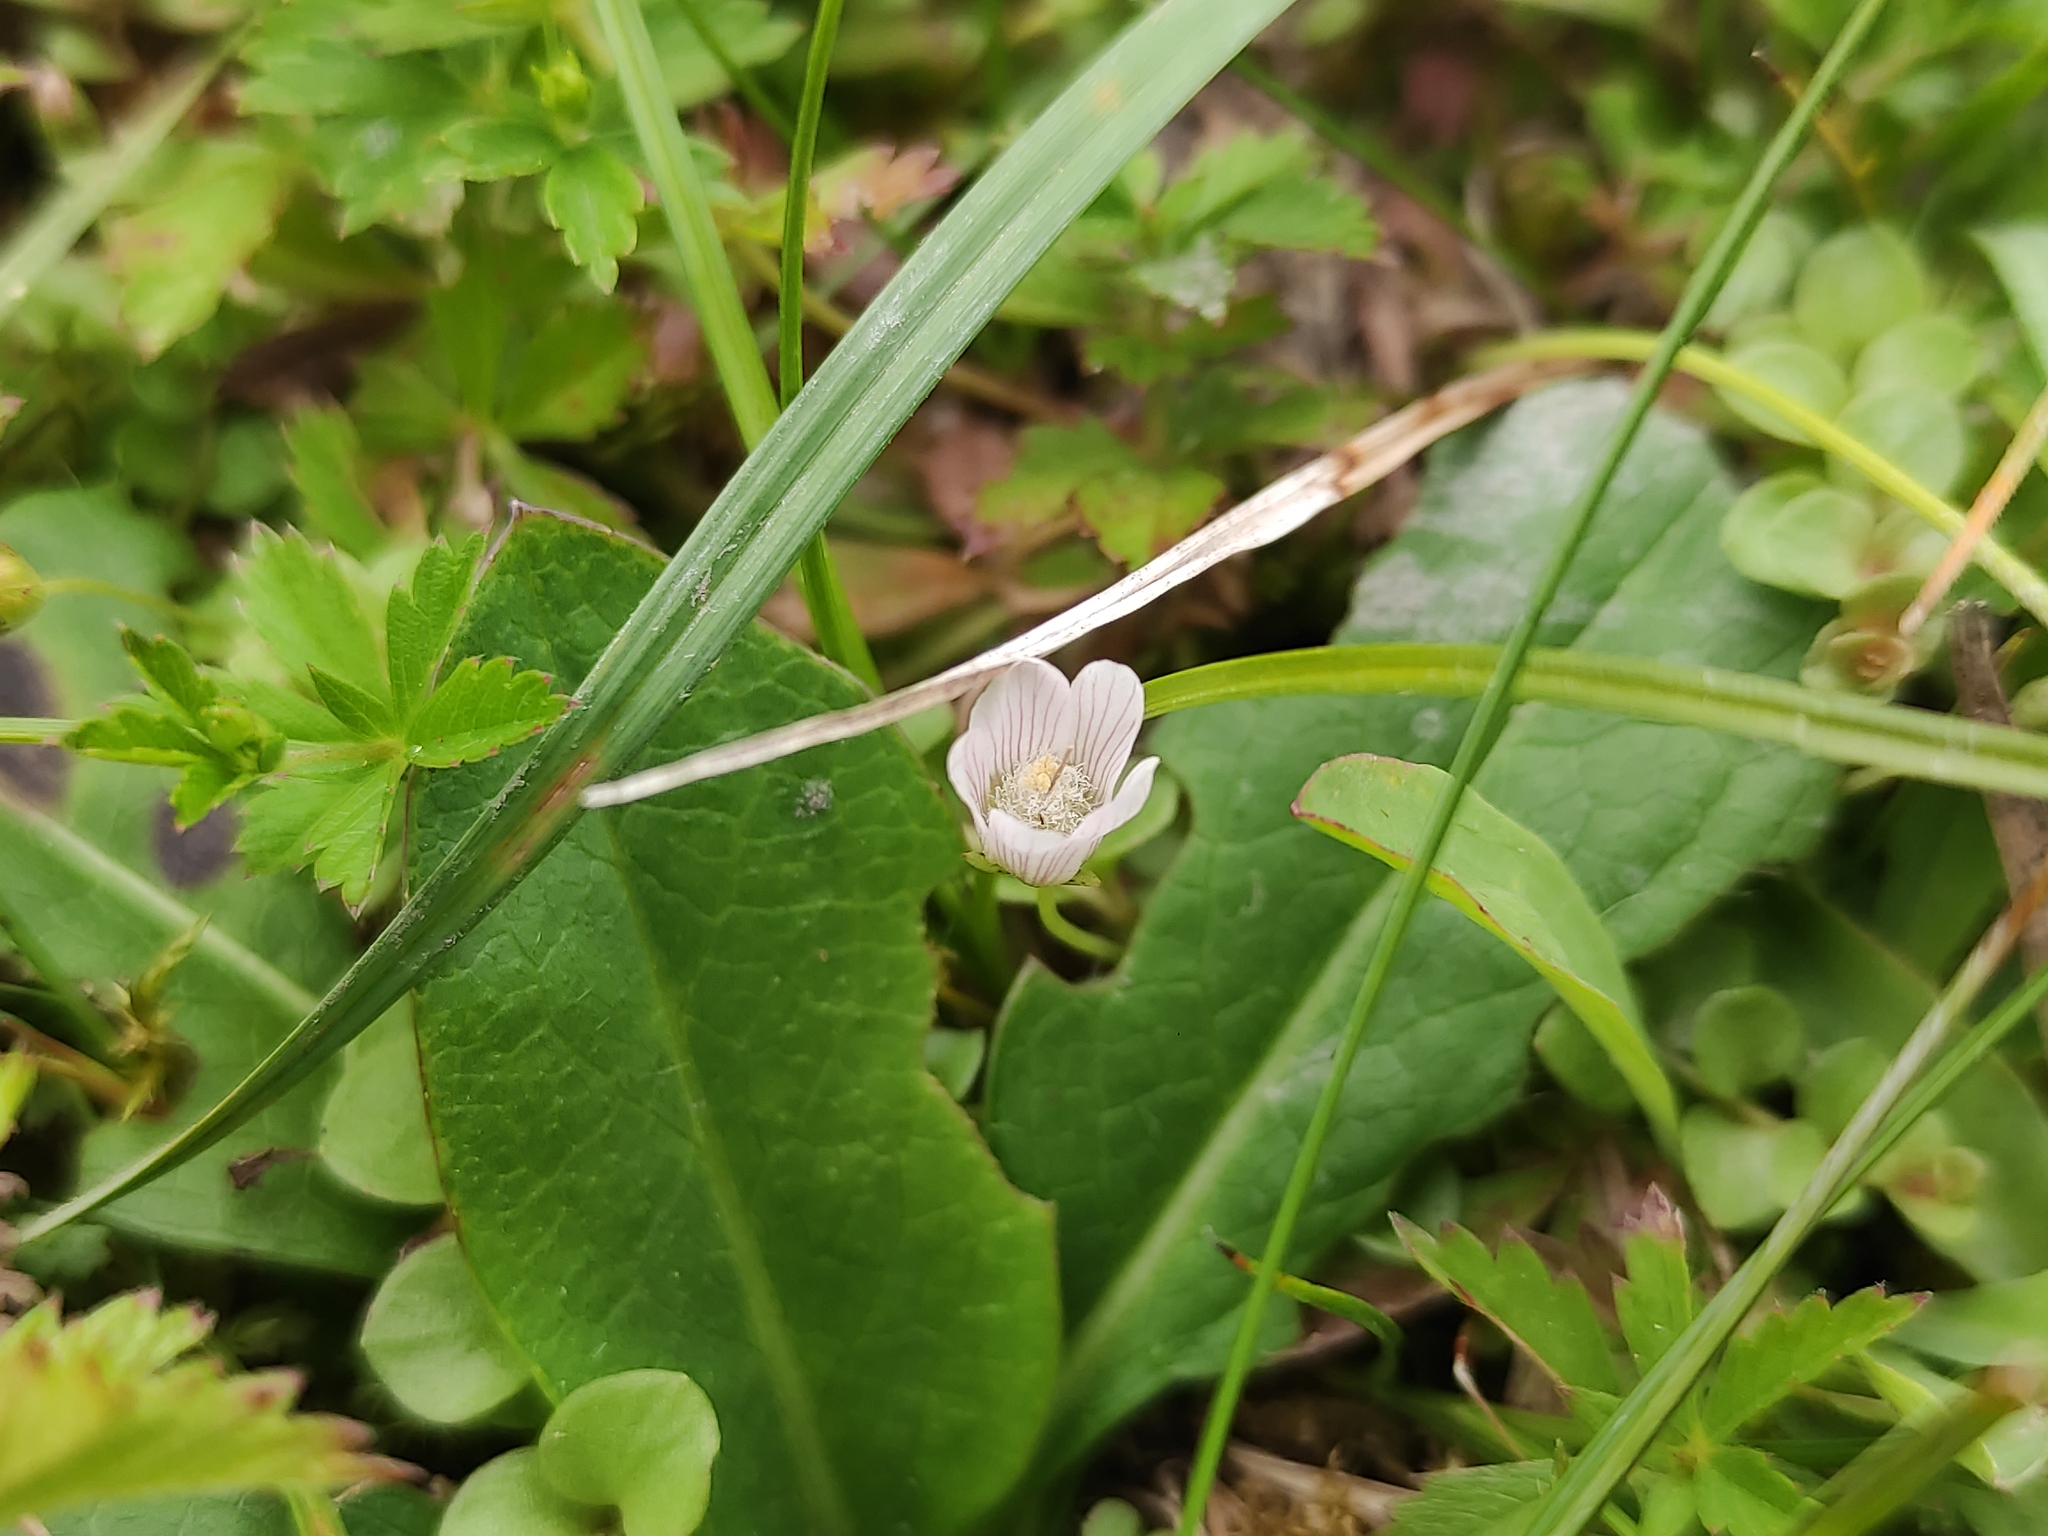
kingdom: Plantae
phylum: Tracheophyta
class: Magnoliopsida
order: Ericales
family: Primulaceae
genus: Lysimachia
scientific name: Lysimachia tenella
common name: European bog pimpernel
